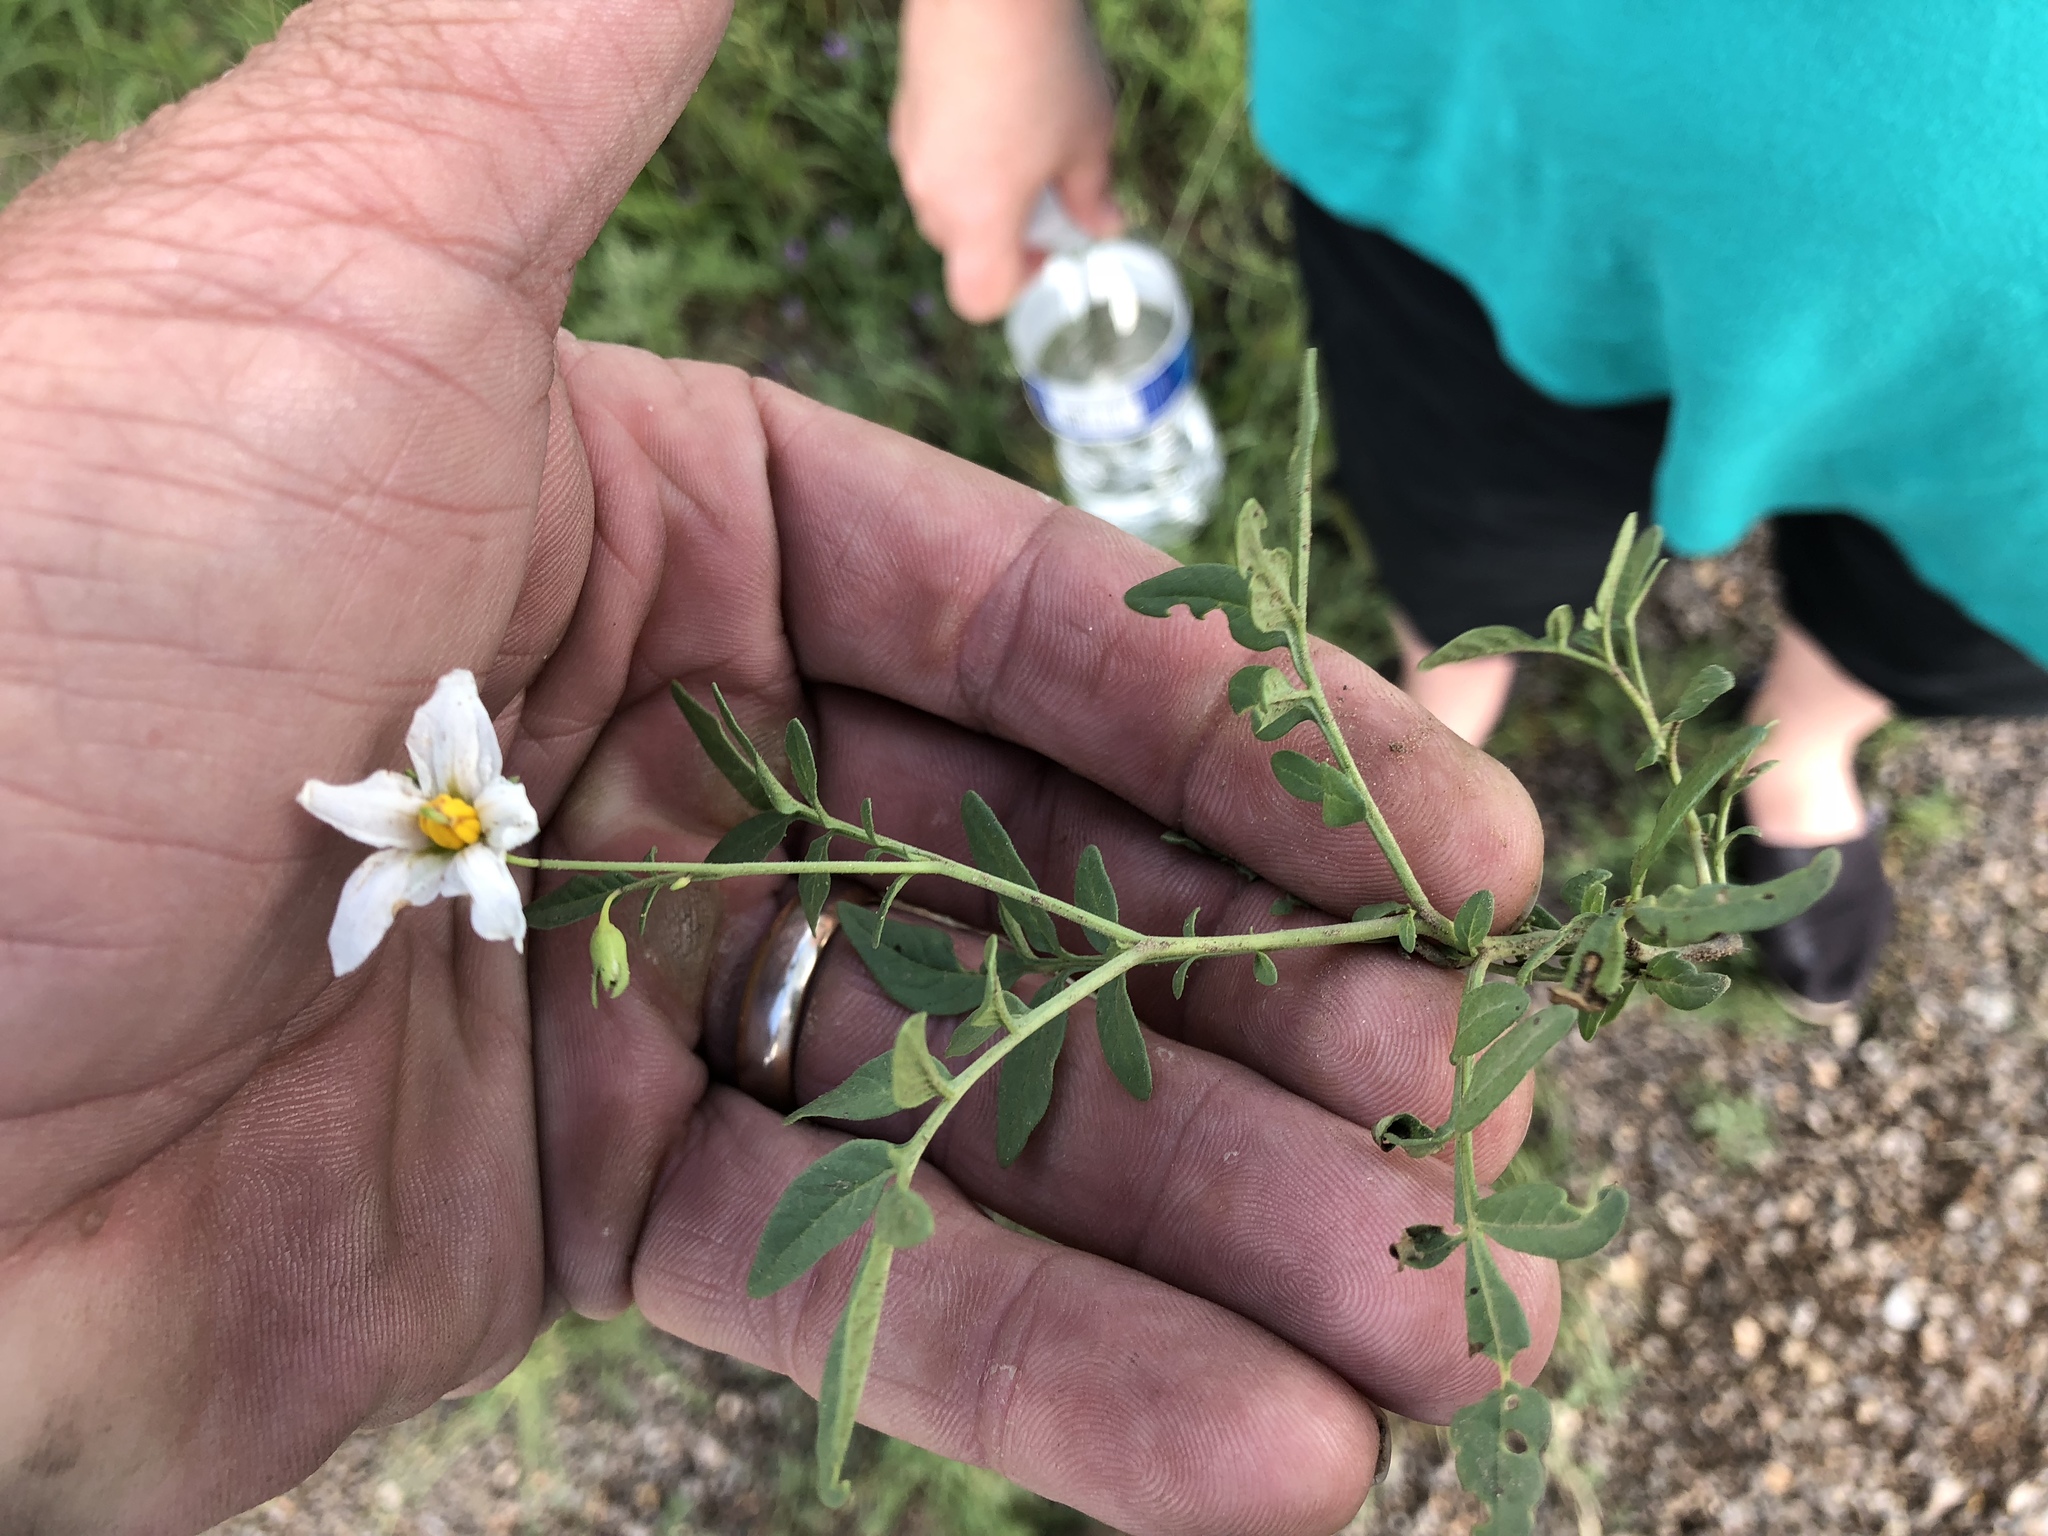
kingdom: Plantae
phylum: Tracheophyta
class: Magnoliopsida
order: Solanales
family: Solanaceae
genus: Solanum
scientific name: Solanum jamesii
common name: Wild potato
